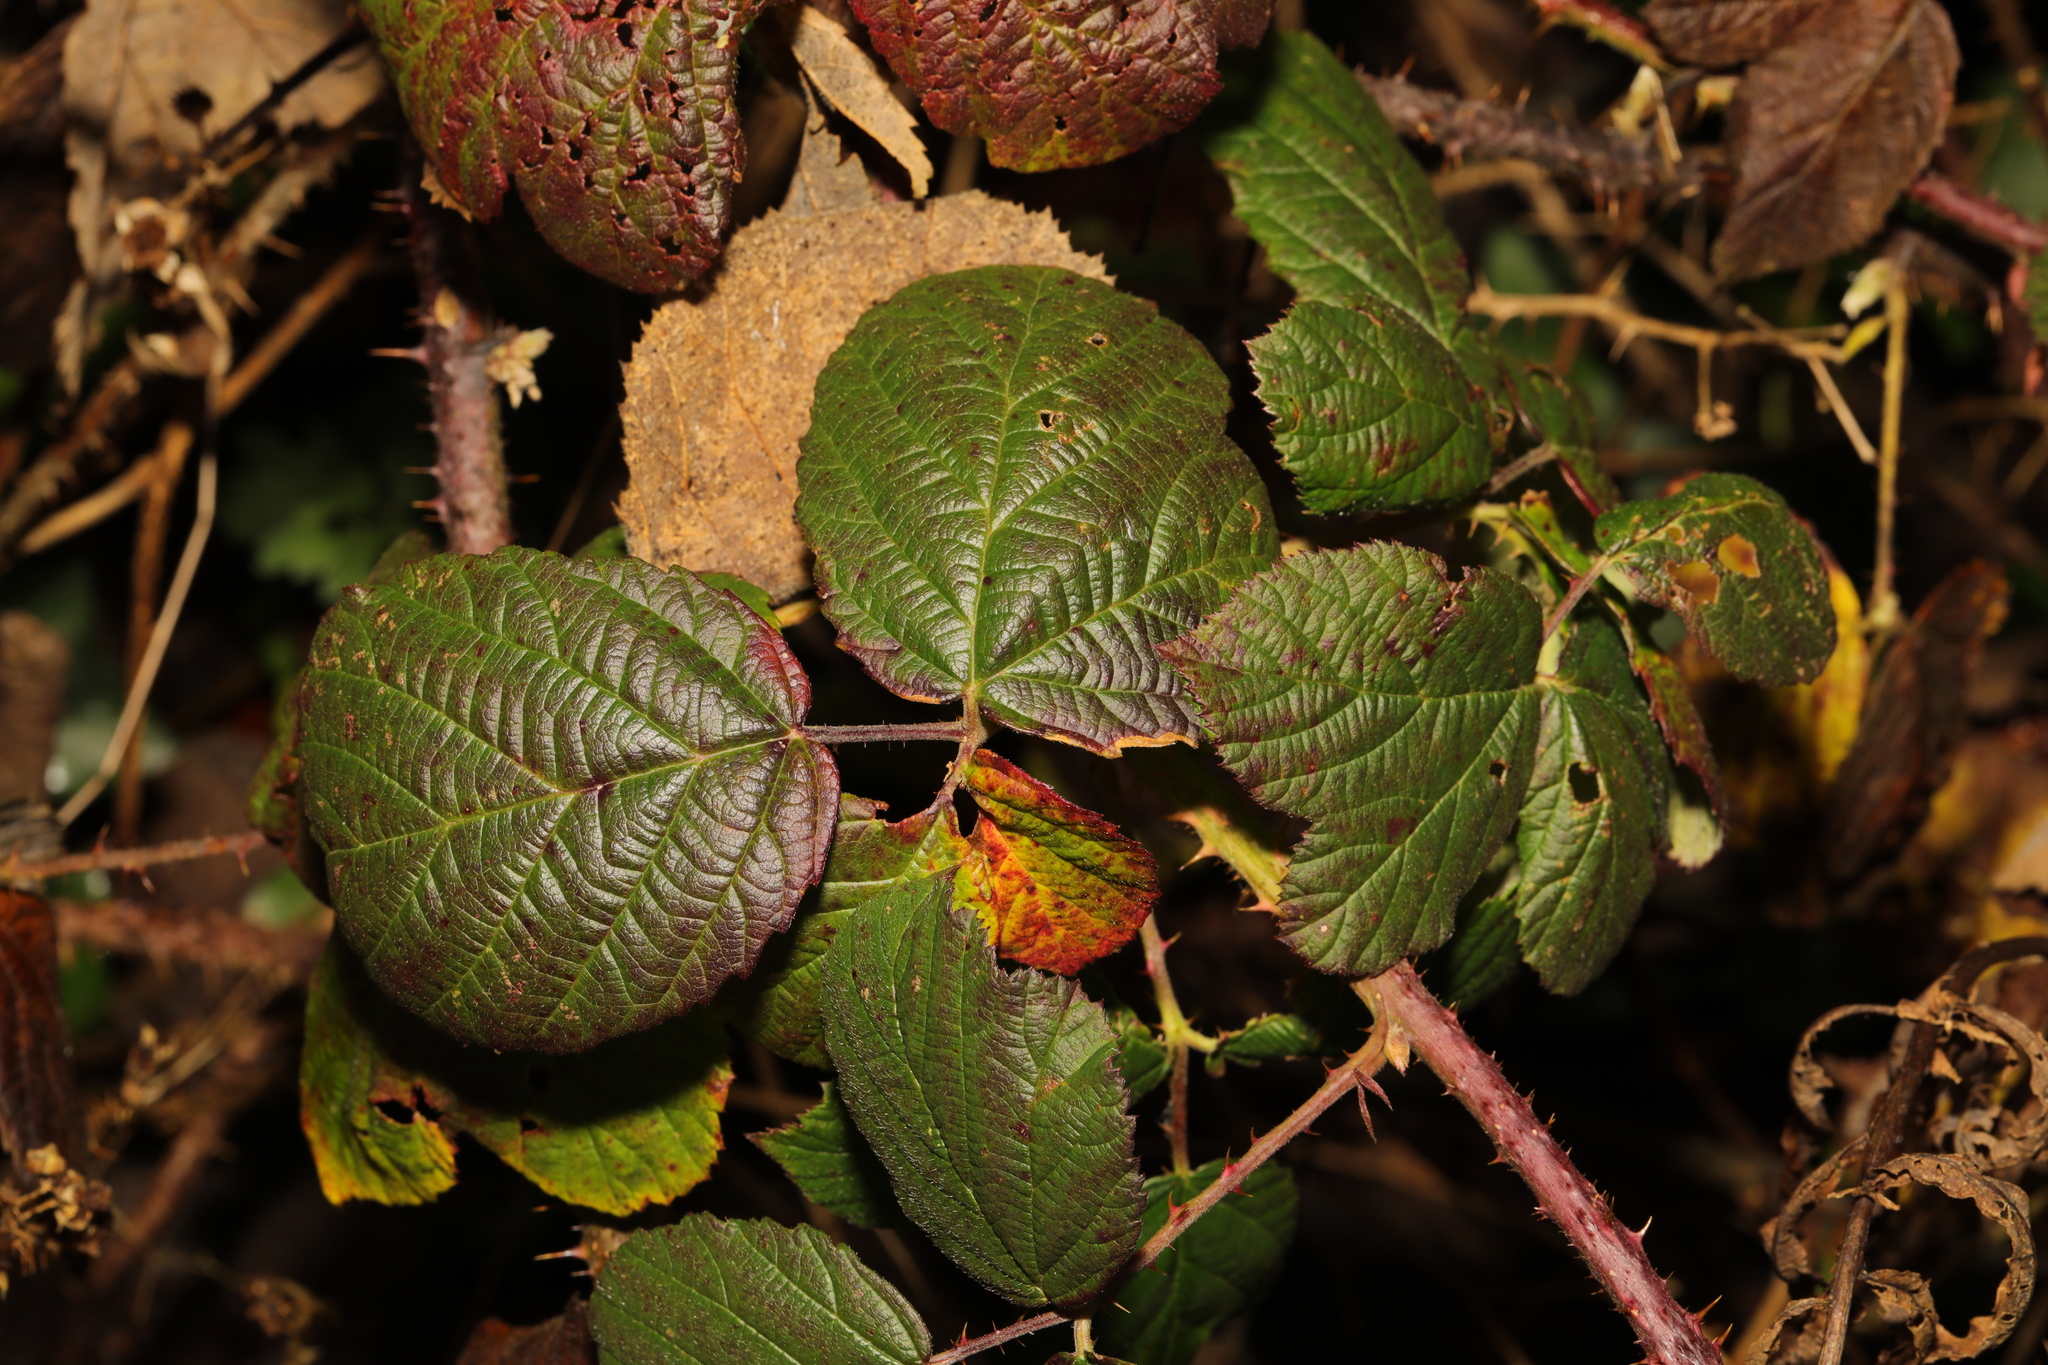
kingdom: Plantae
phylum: Tracheophyta
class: Magnoliopsida
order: Rosales
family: Rosaceae
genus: Rubus
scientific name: Rubus horrefactus
